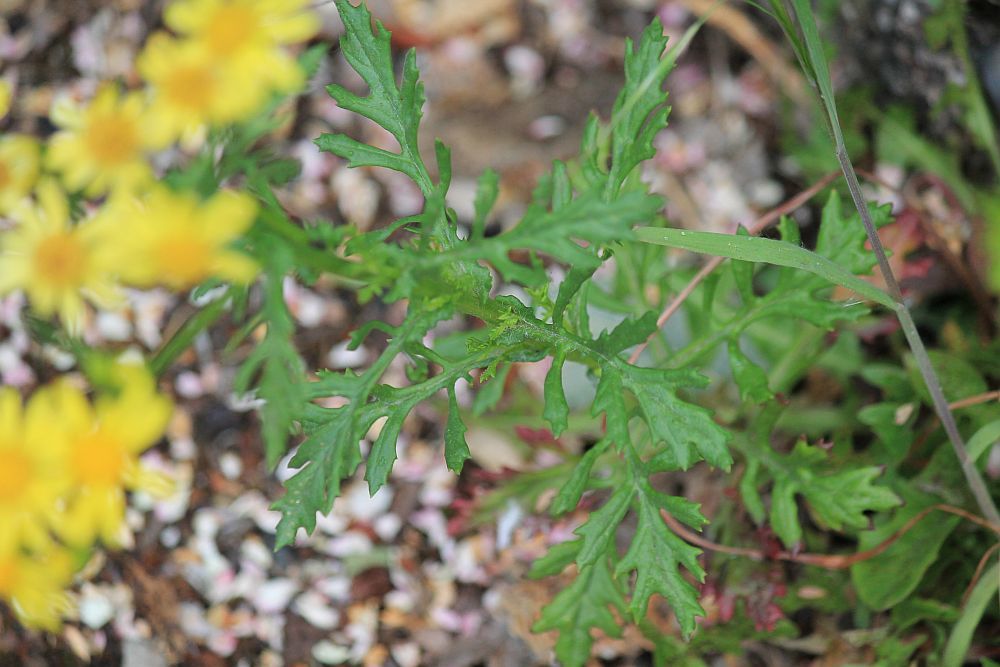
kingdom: Plantae
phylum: Tracheophyta
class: Magnoliopsida
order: Asterales
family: Asteraceae
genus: Senecio
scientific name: Senecio squalidus
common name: Oxford ragwort
